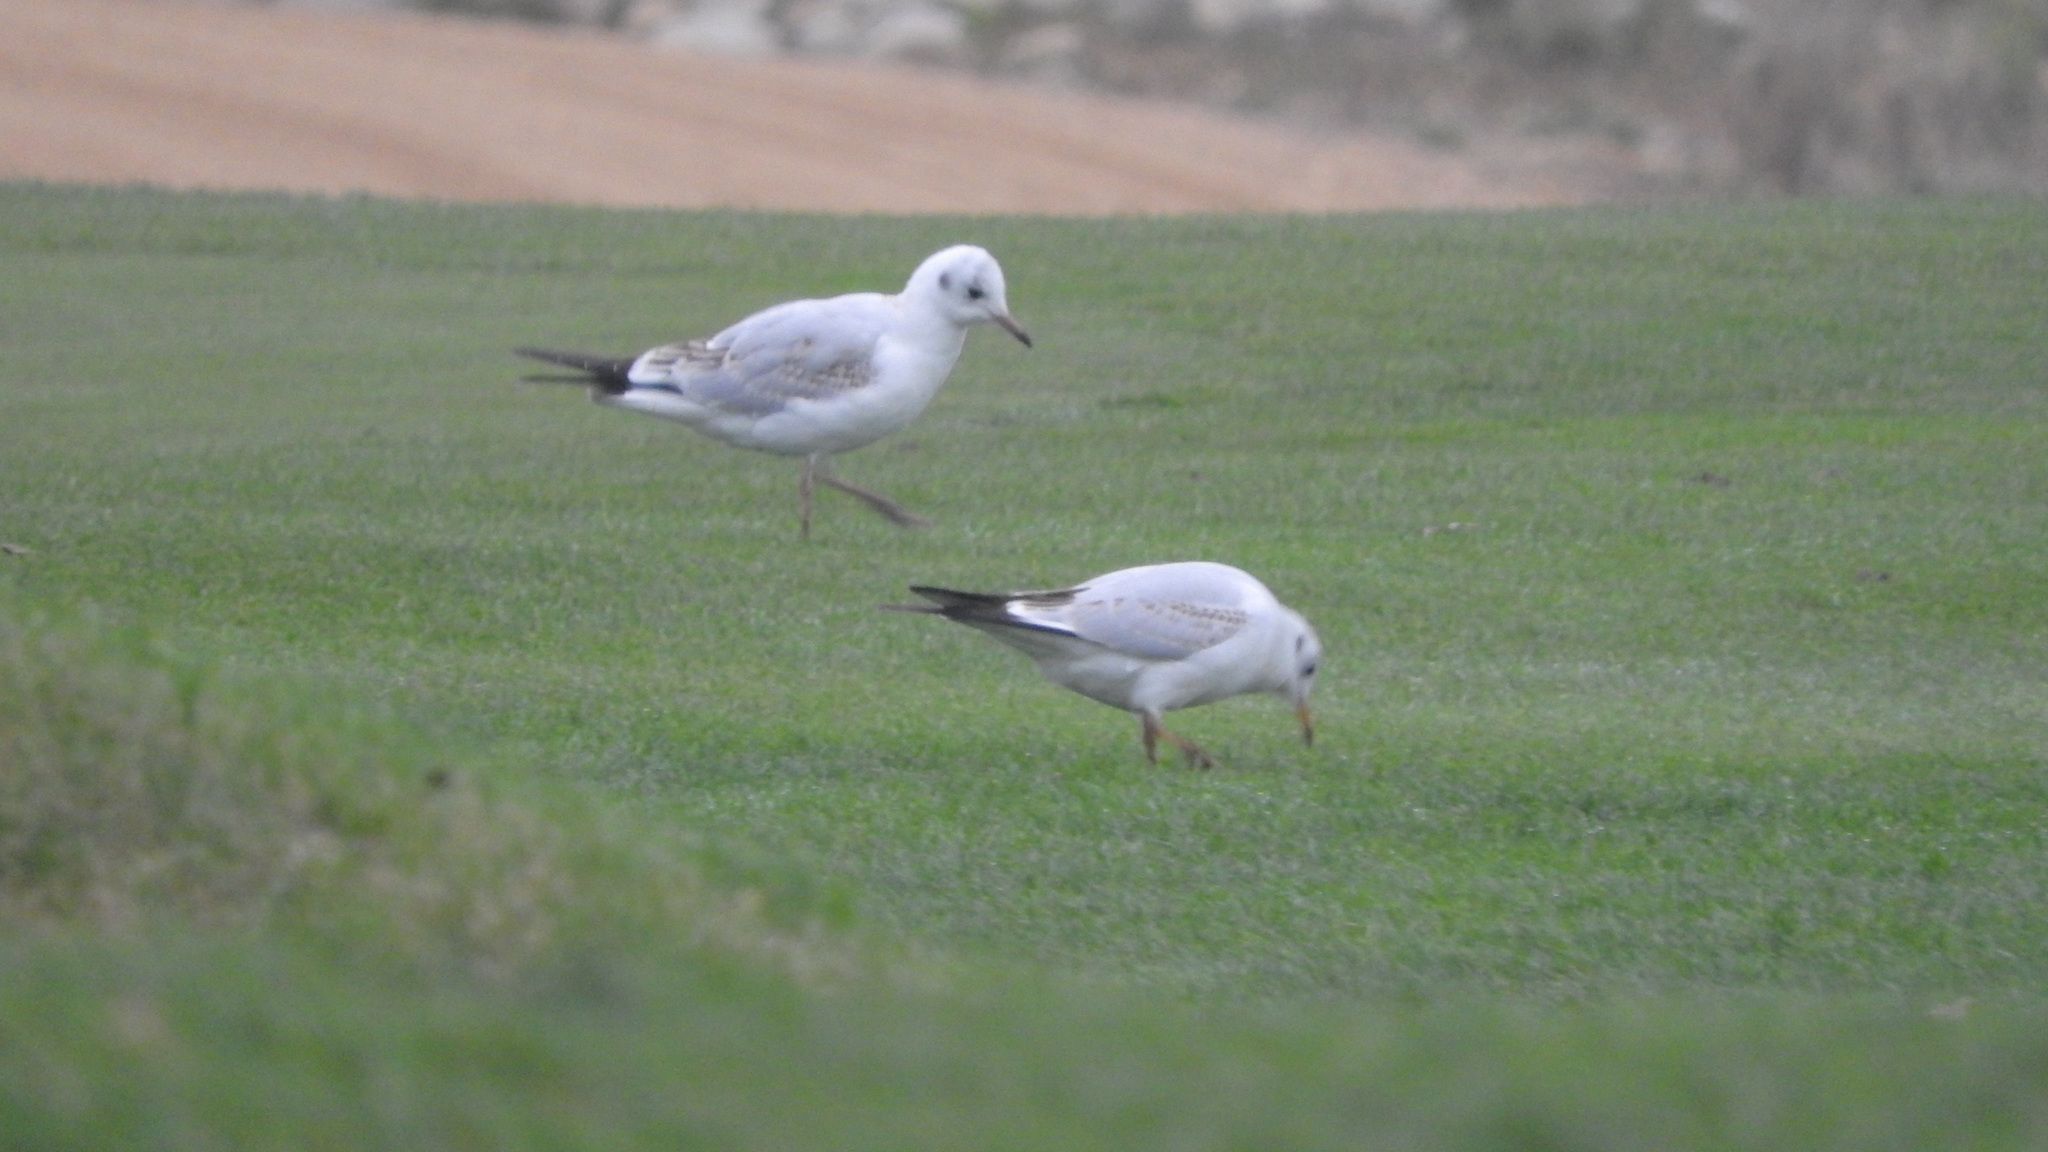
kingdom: Animalia
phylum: Chordata
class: Aves
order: Charadriiformes
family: Laridae
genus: Chroicocephalus
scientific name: Chroicocephalus ridibundus
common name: Black-headed gull
